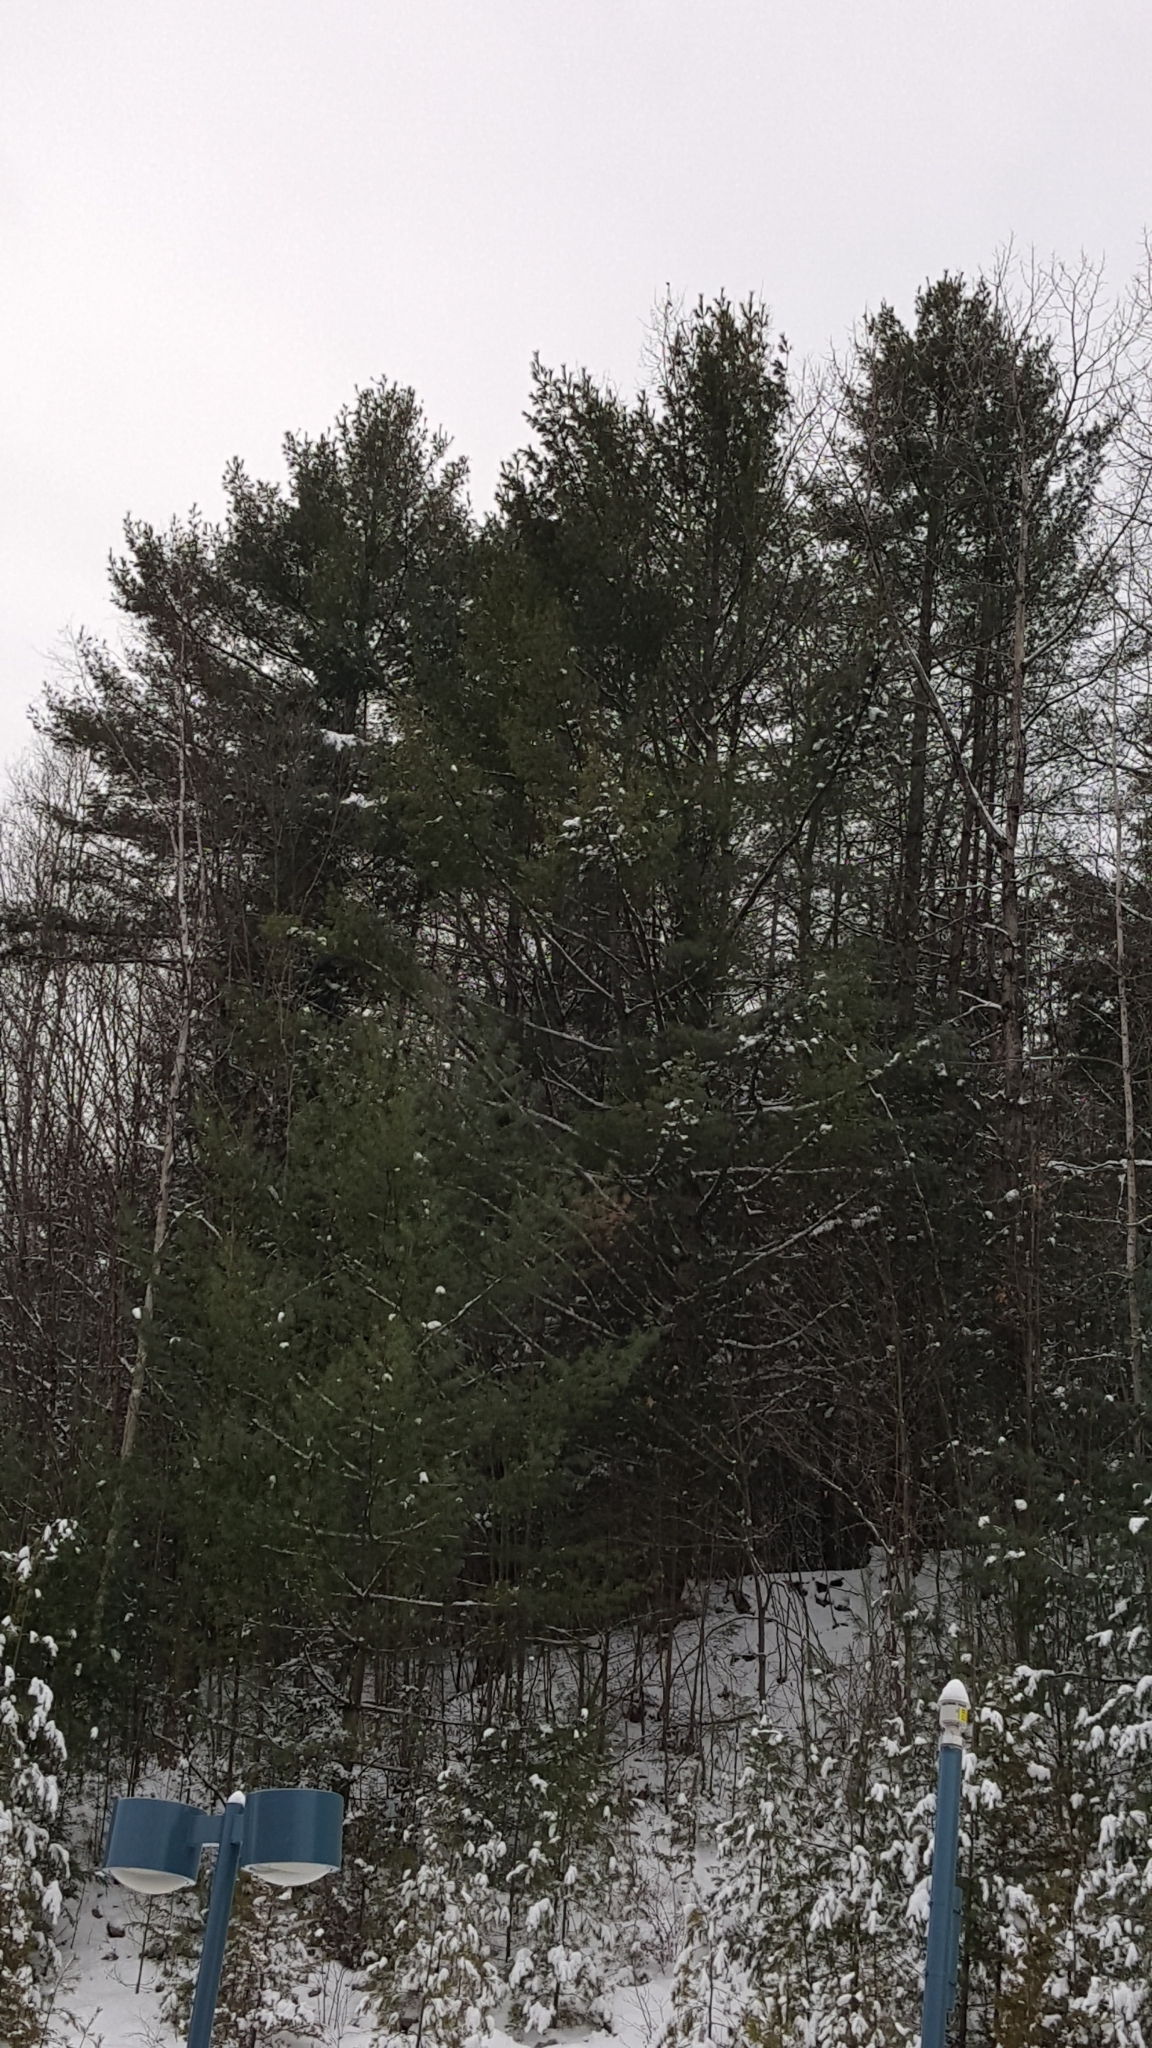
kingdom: Plantae
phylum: Tracheophyta
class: Pinopsida
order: Pinales
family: Pinaceae
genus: Pinus
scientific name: Pinus strobus
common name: Weymouth pine
